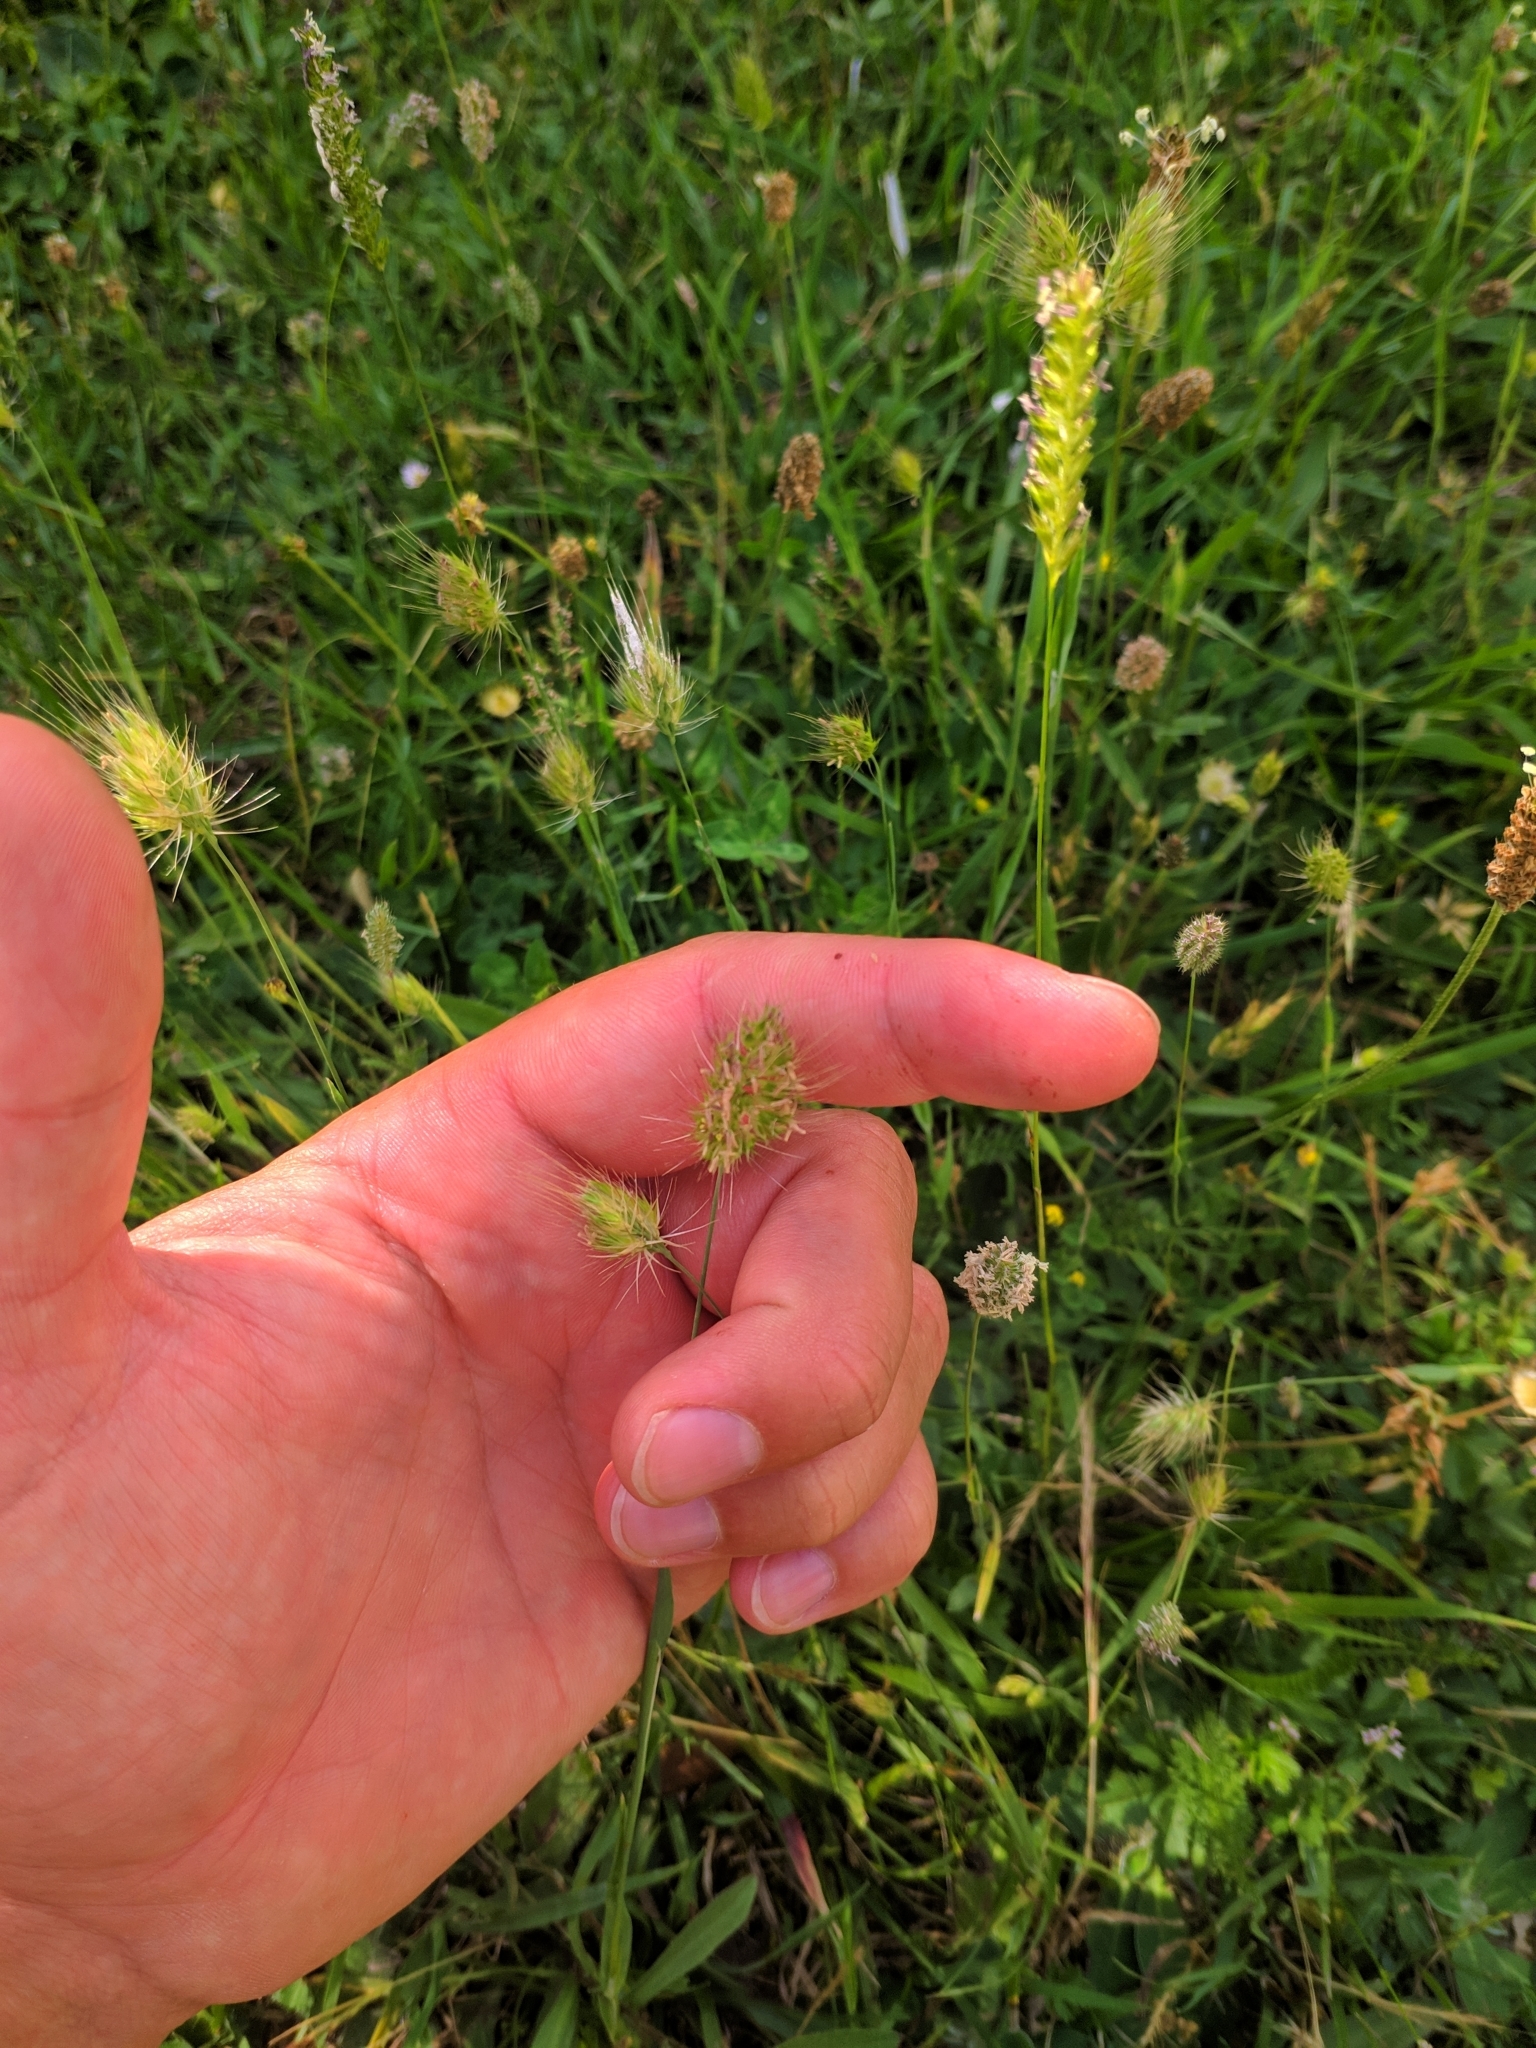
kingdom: Plantae
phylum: Tracheophyta
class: Liliopsida
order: Poales
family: Poaceae
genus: Cynosurus
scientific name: Cynosurus echinatus
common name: Rough dog's-tail
